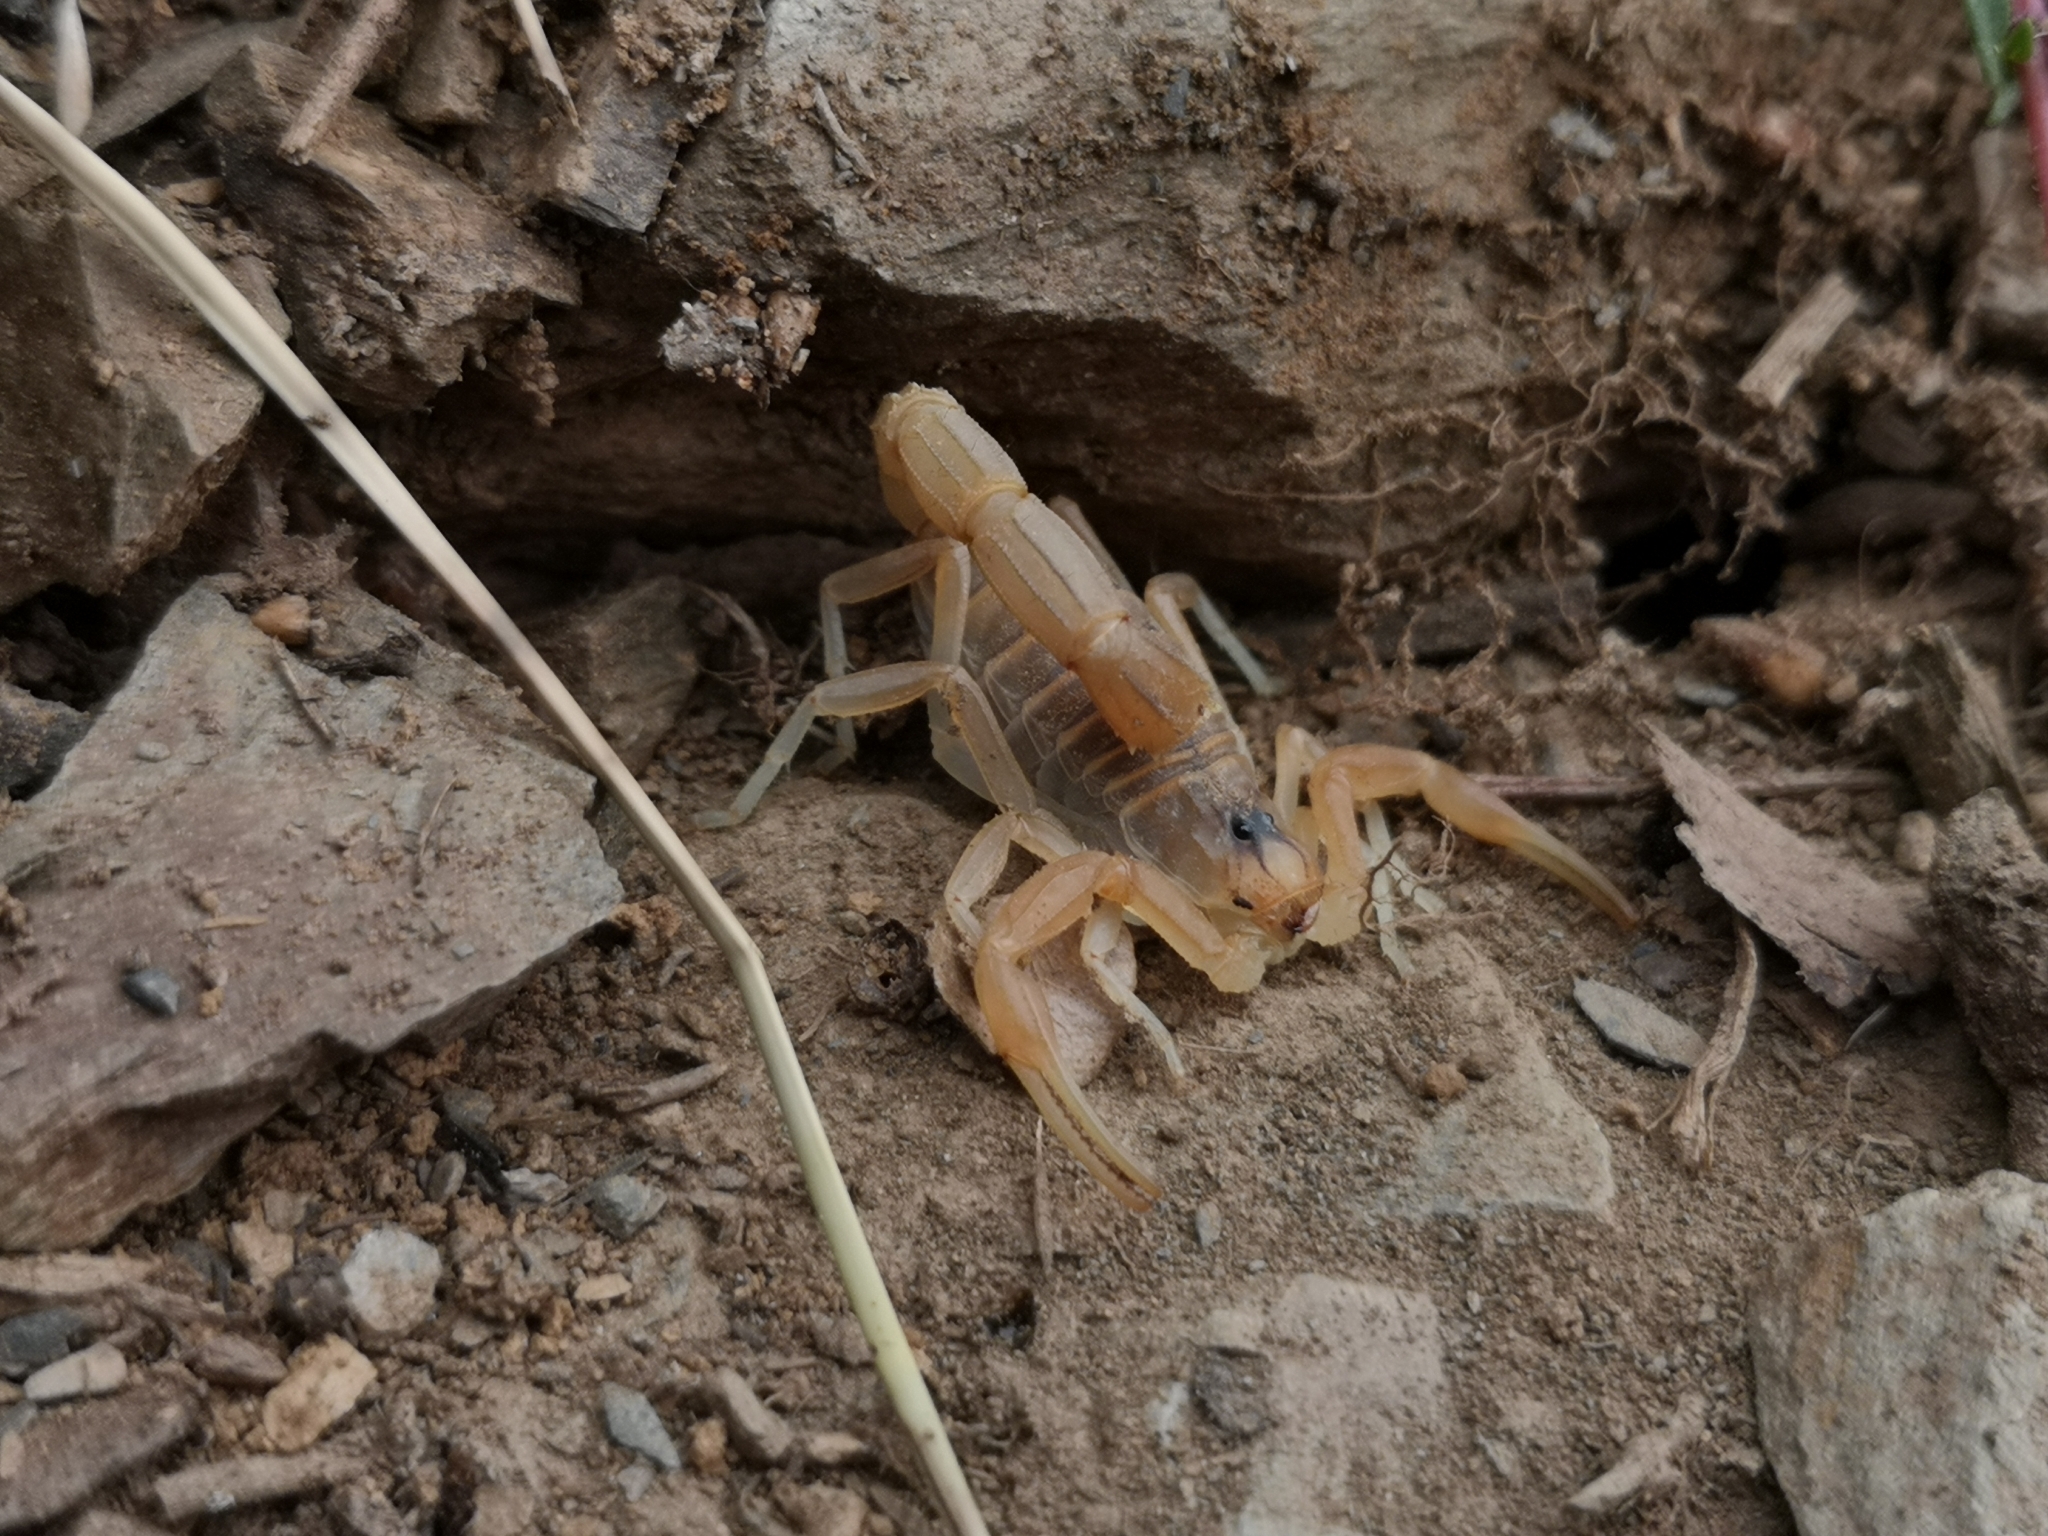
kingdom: Animalia
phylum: Arthropoda
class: Arachnida
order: Scorpiones
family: Buthidae
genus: Buthus
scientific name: Buthus occitanus
